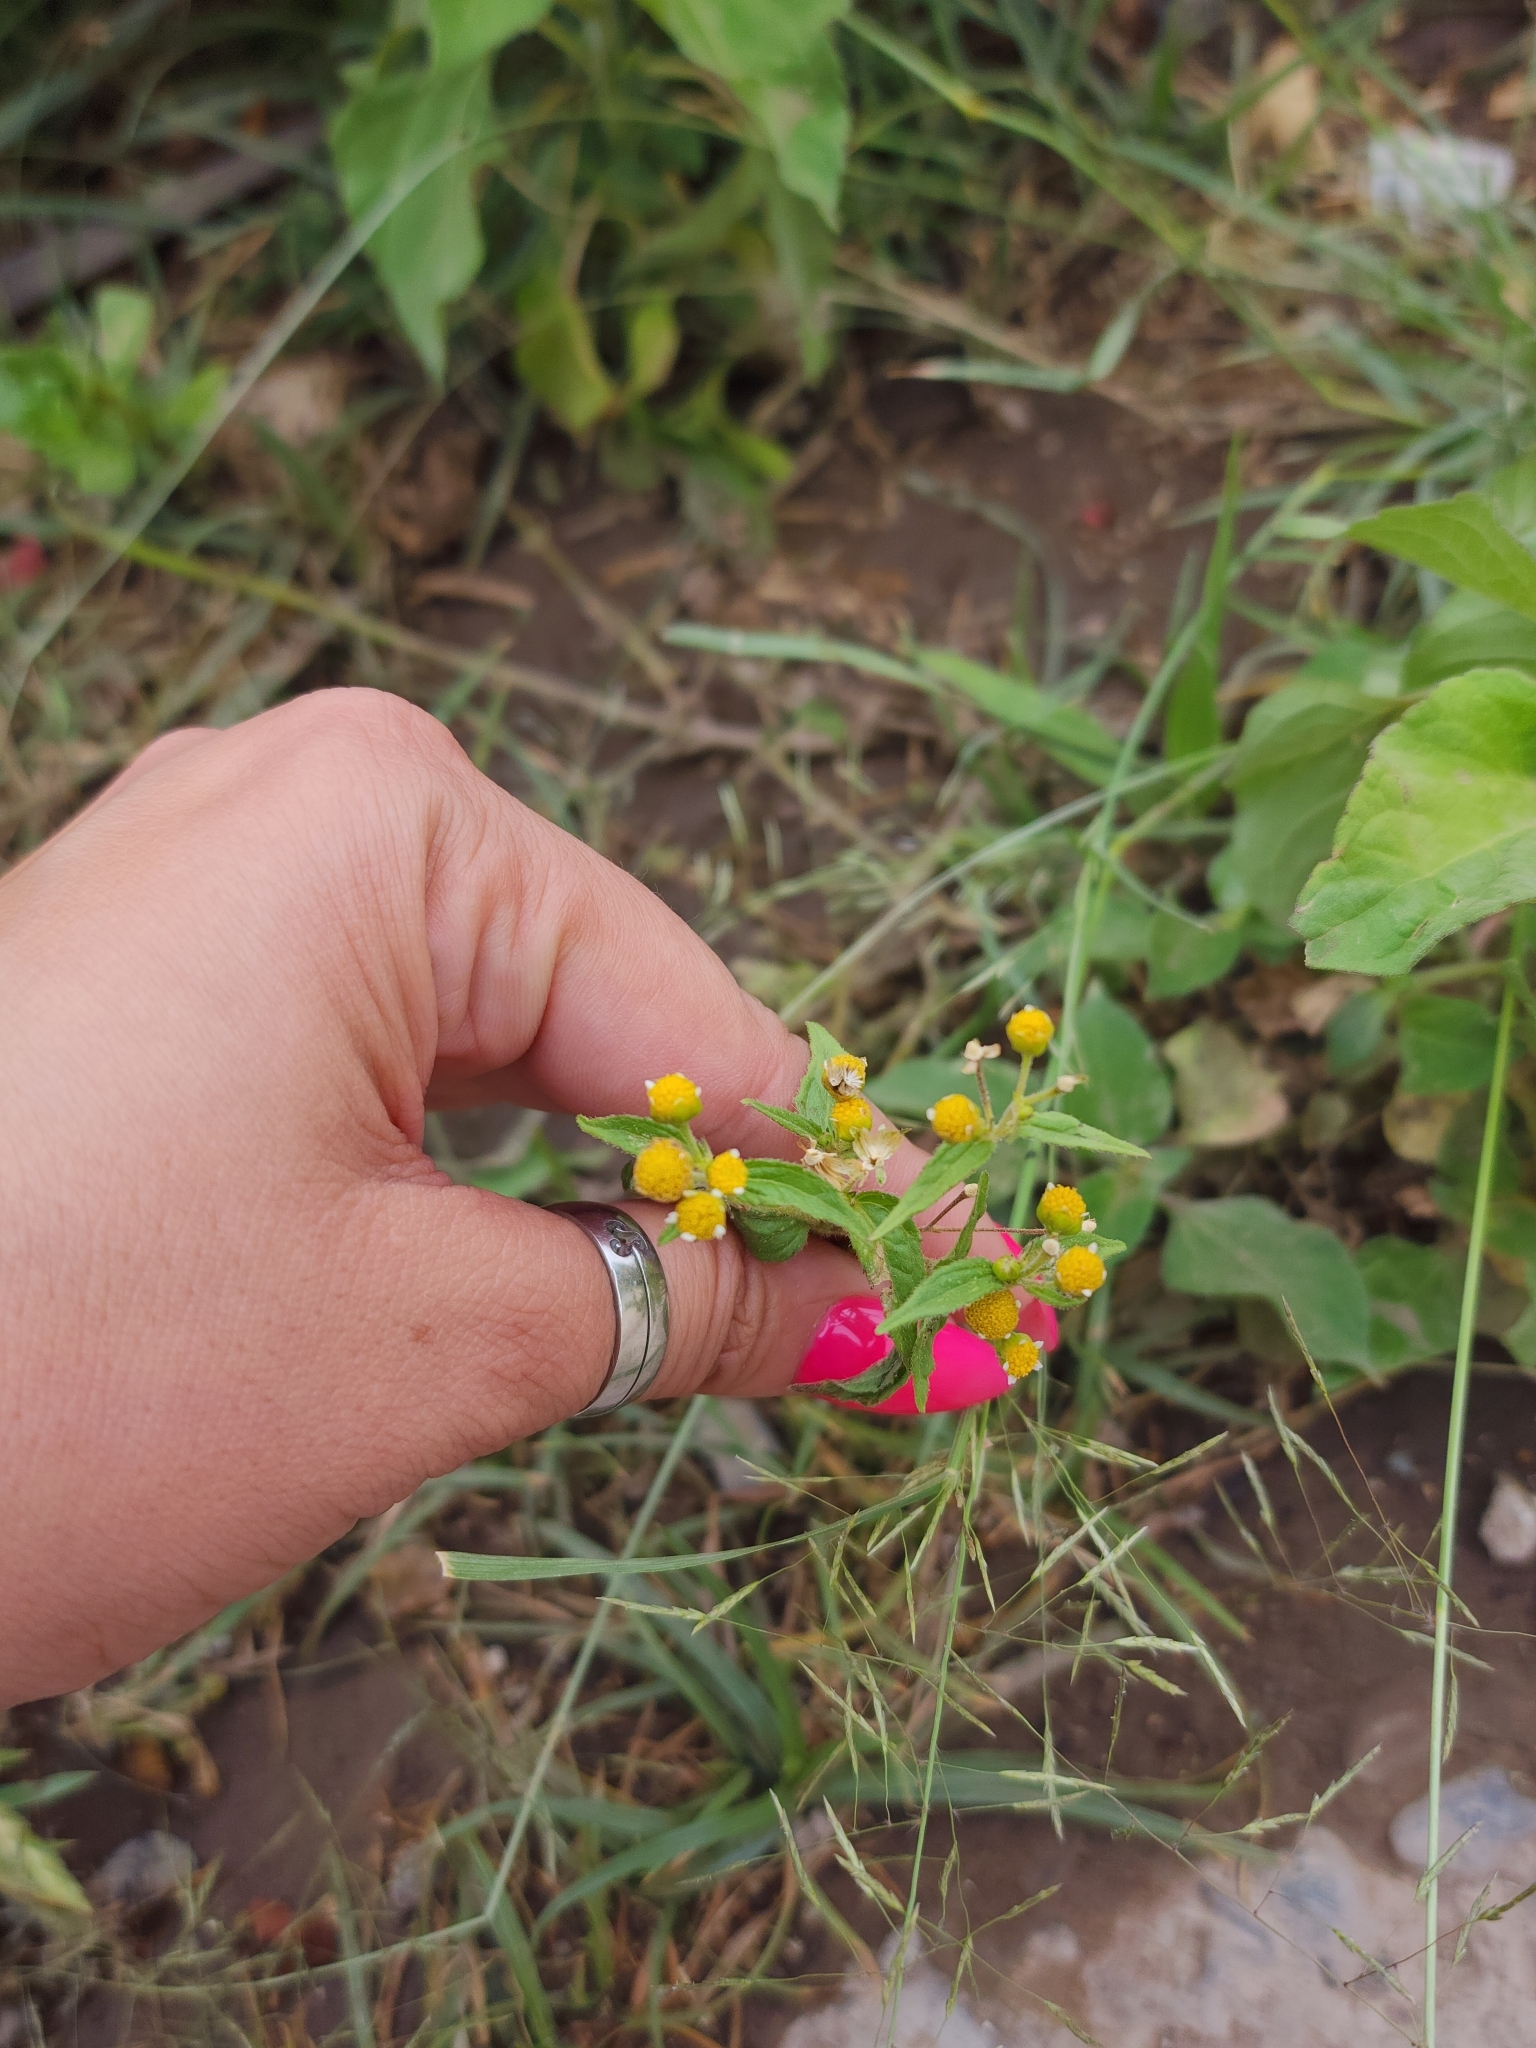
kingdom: Plantae
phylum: Tracheophyta
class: Magnoliopsida
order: Asterales
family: Asteraceae
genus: Galinsoga
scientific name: Galinsoga parviflora
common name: Gallant soldier
